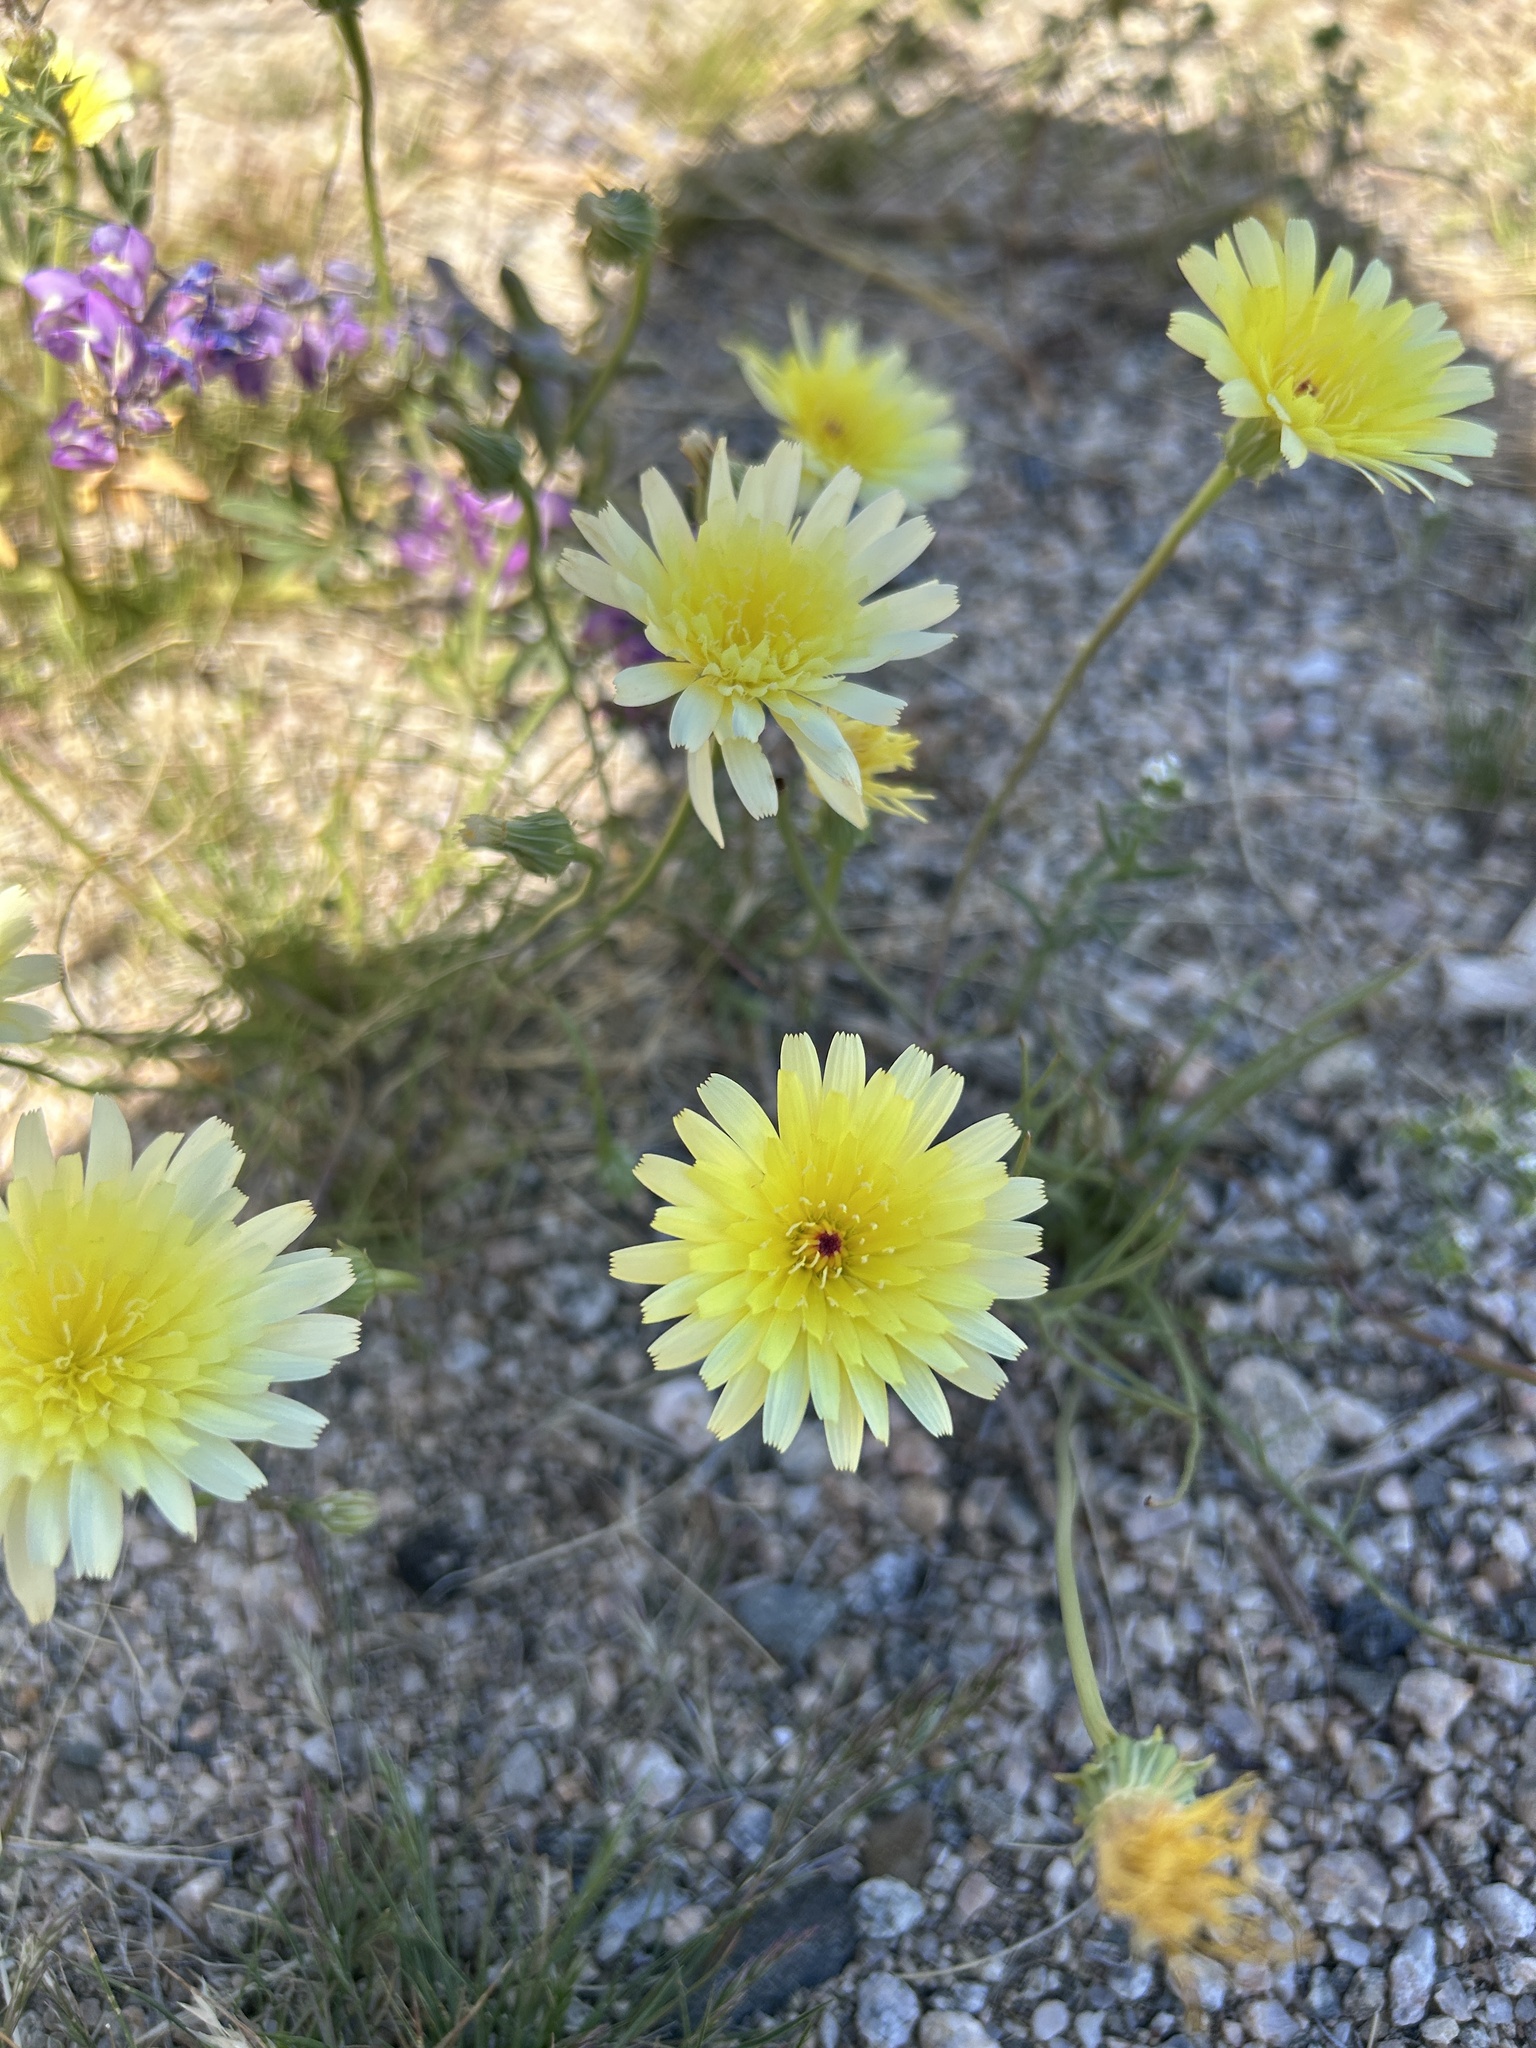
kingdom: Plantae
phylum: Tracheophyta
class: Magnoliopsida
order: Asterales
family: Asteraceae
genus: Malacothrix
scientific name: Malacothrix glabrata
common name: Smooth desert-dandelion
